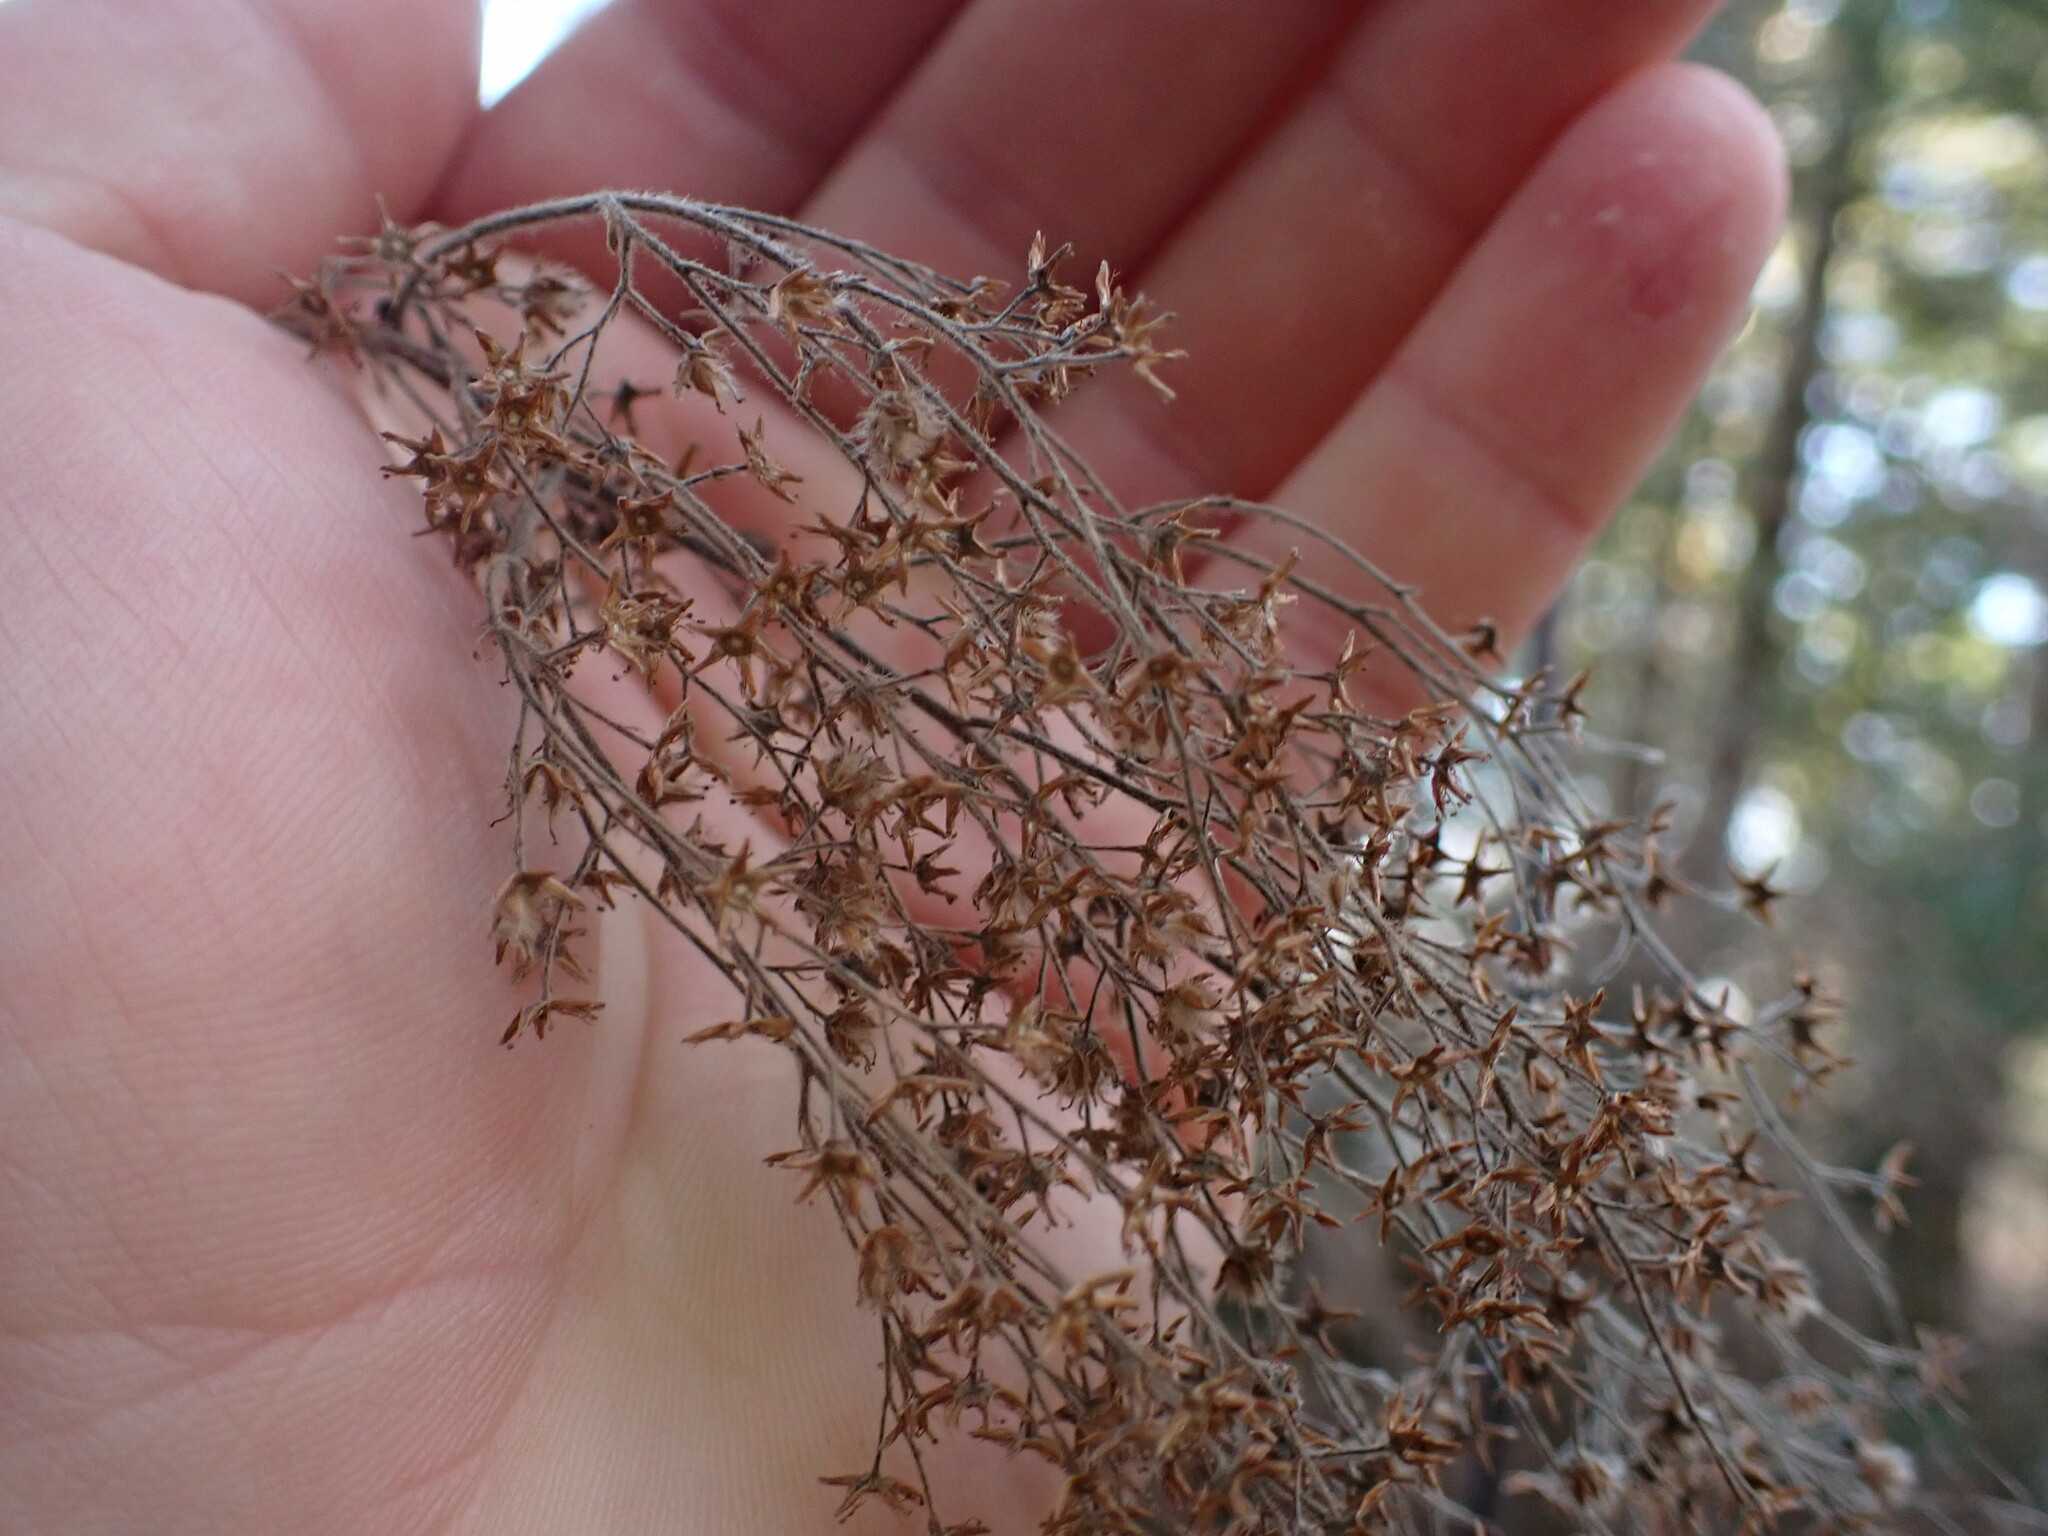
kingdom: Plantae
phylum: Tracheophyta
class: Magnoliopsida
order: Rosales
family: Rosaceae
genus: Holodiscus
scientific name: Holodiscus discolor
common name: Oceanspray
